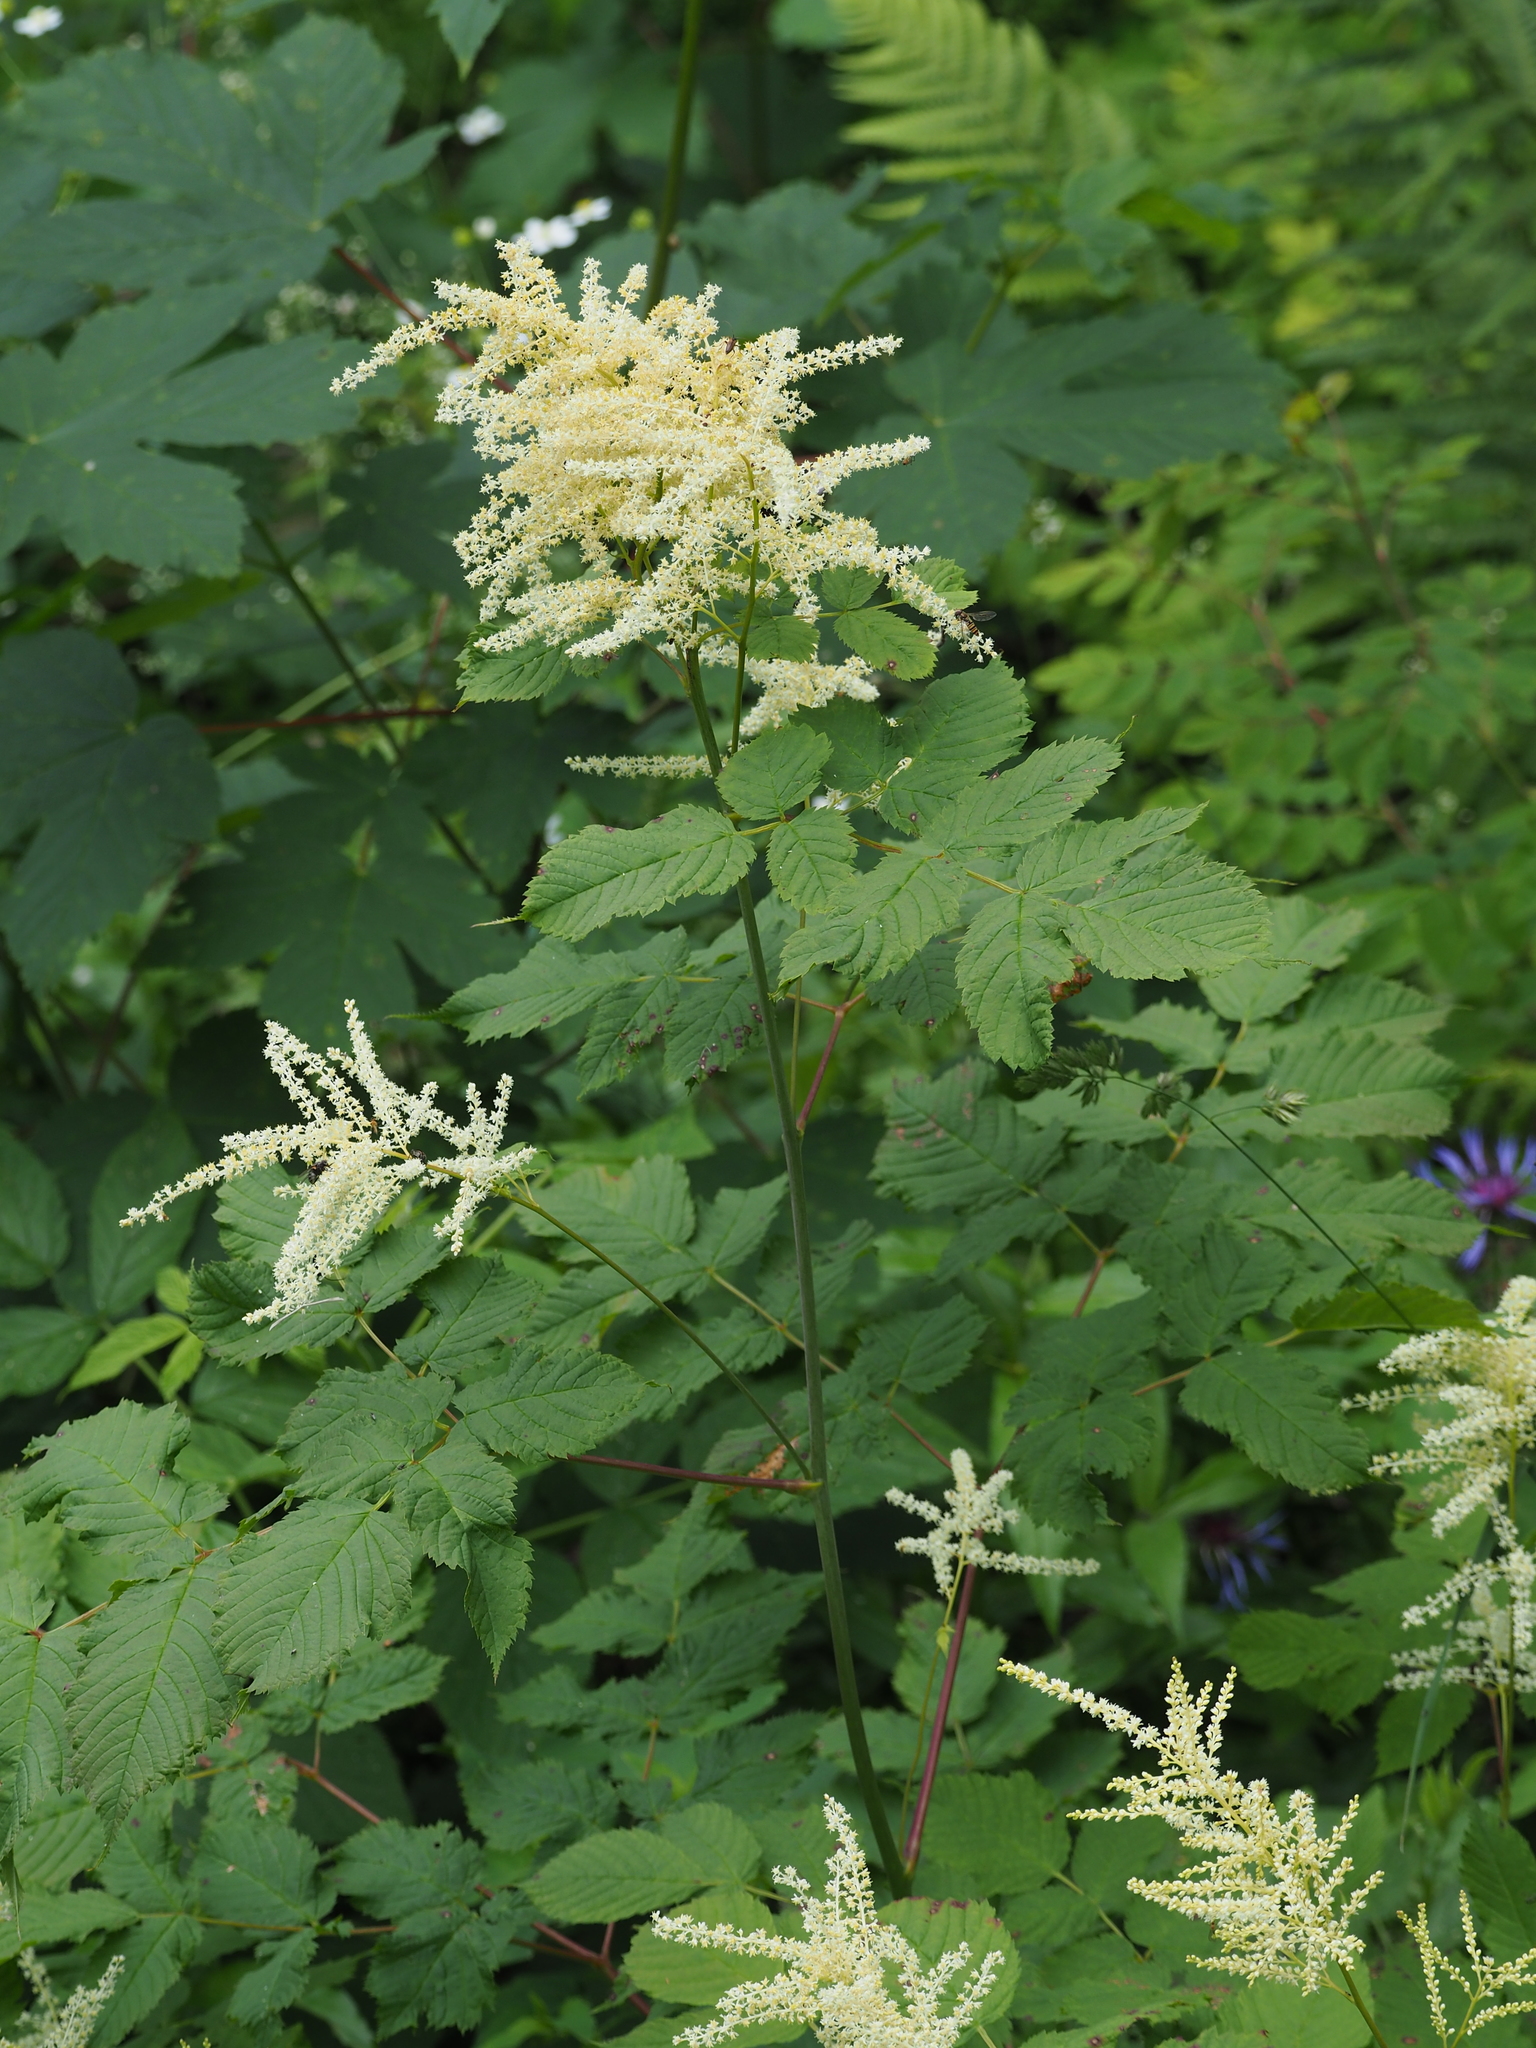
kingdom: Plantae
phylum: Tracheophyta
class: Magnoliopsida
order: Rosales
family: Rosaceae
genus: Aruncus
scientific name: Aruncus dioicus
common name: Buck's-beard
